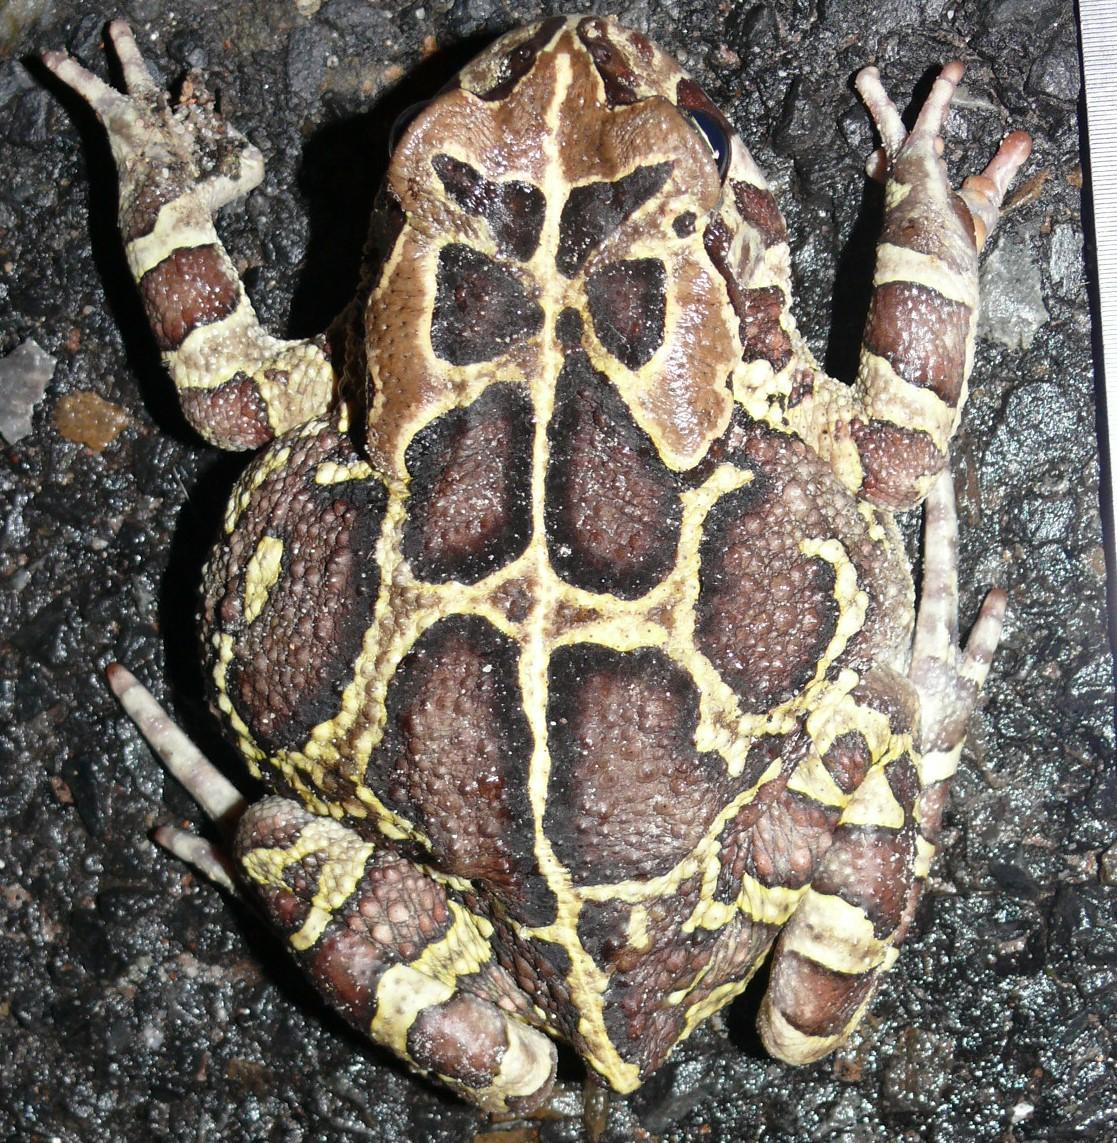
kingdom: Animalia
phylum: Chordata
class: Amphibia
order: Anura
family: Bufonidae
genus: Sclerophrys
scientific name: Sclerophrys pantherina
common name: Panther toad
